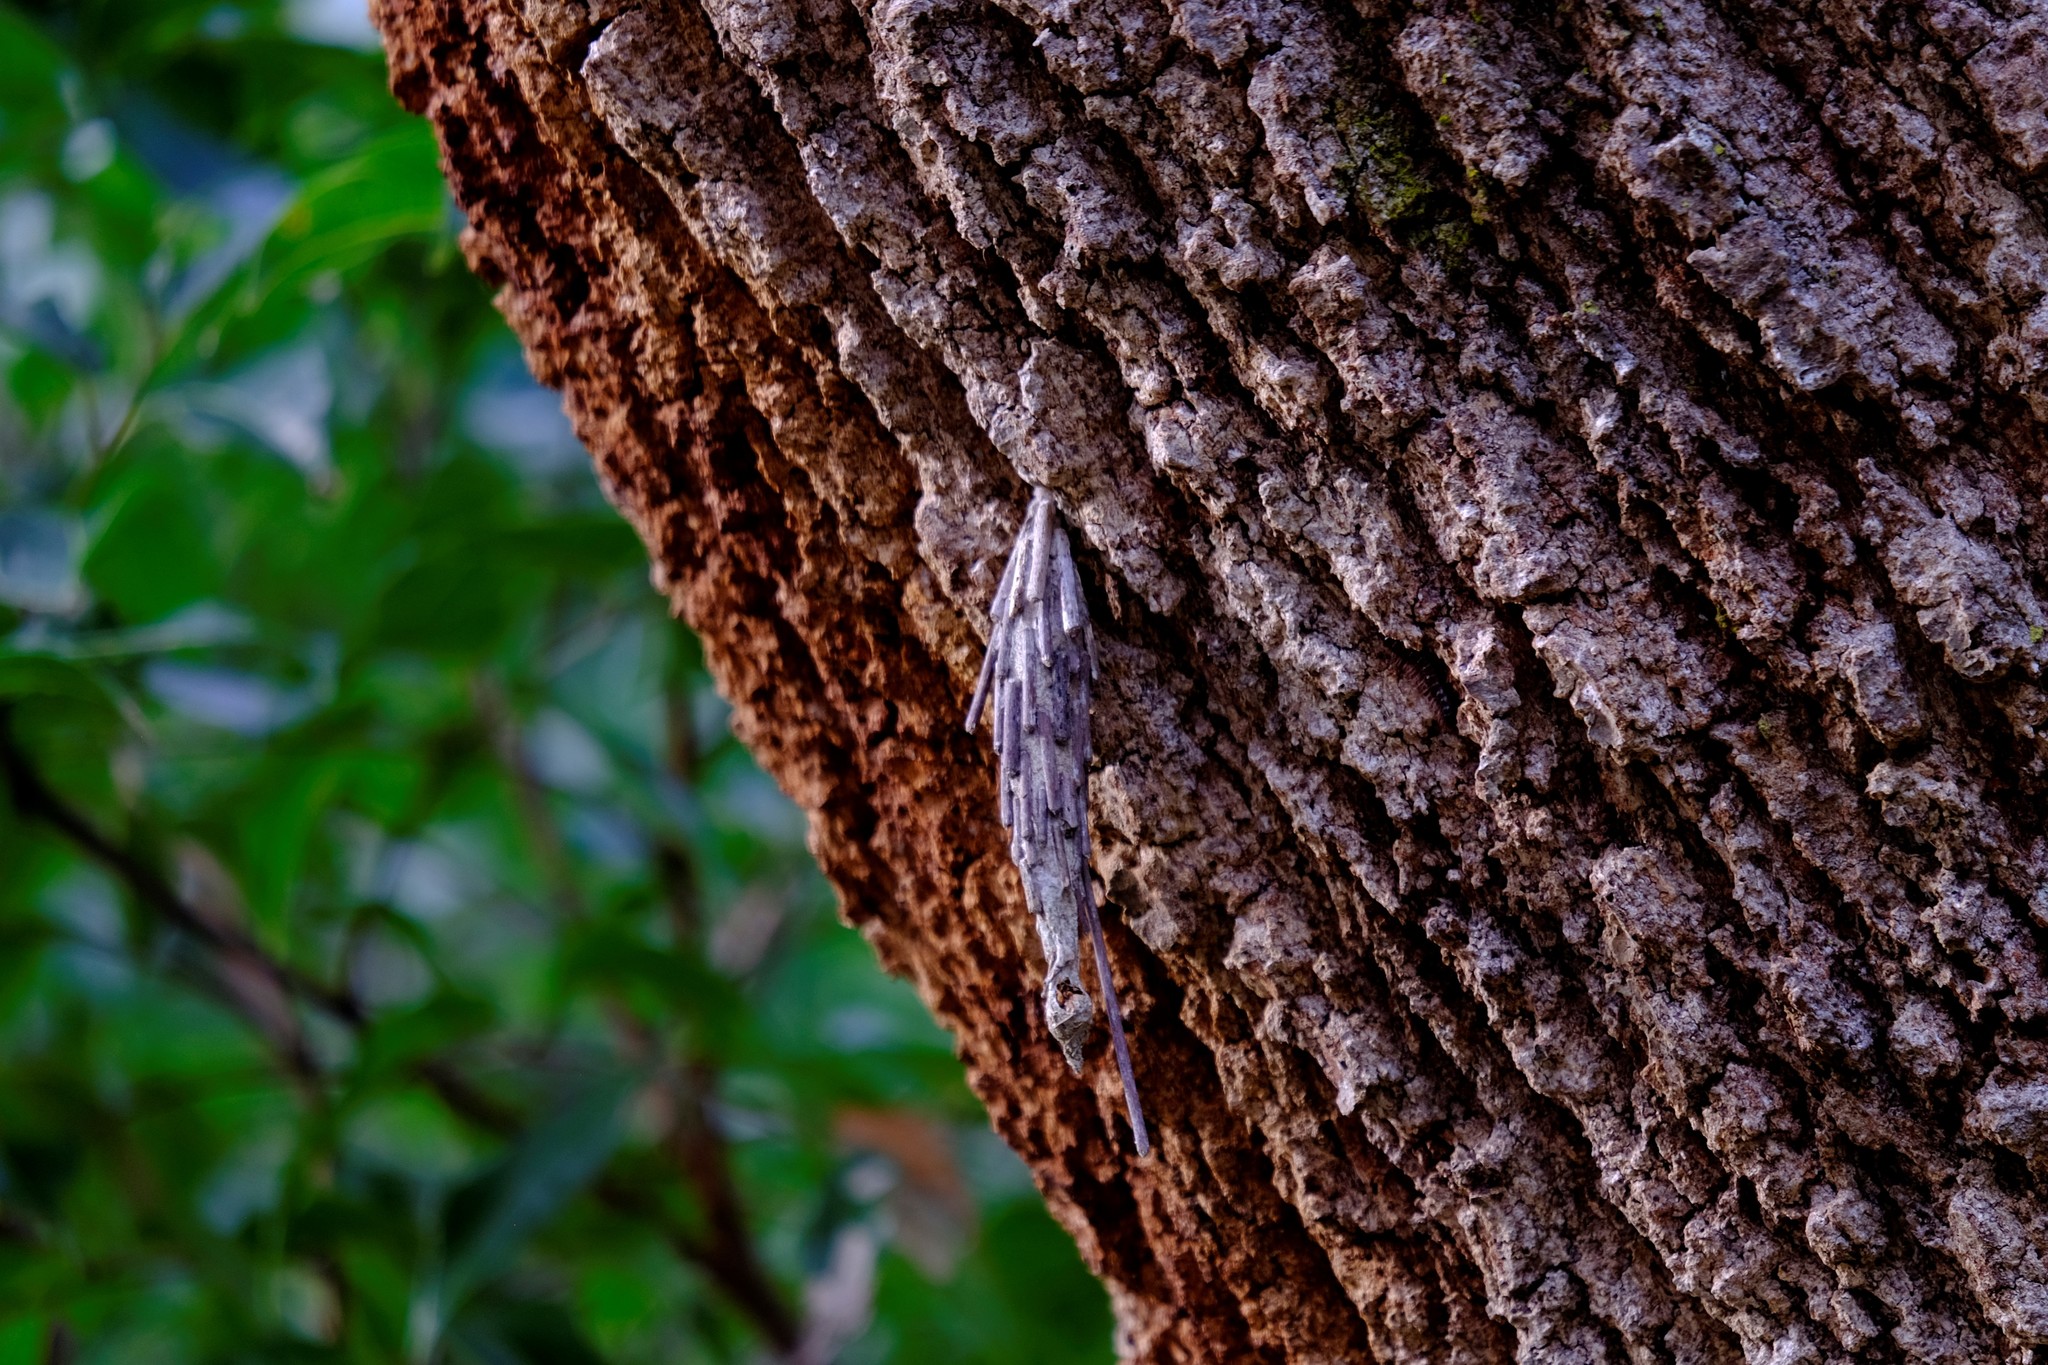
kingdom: Animalia
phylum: Arthropoda
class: Insecta
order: Lepidoptera
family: Psychidae
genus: Metura
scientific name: Metura elongatus
